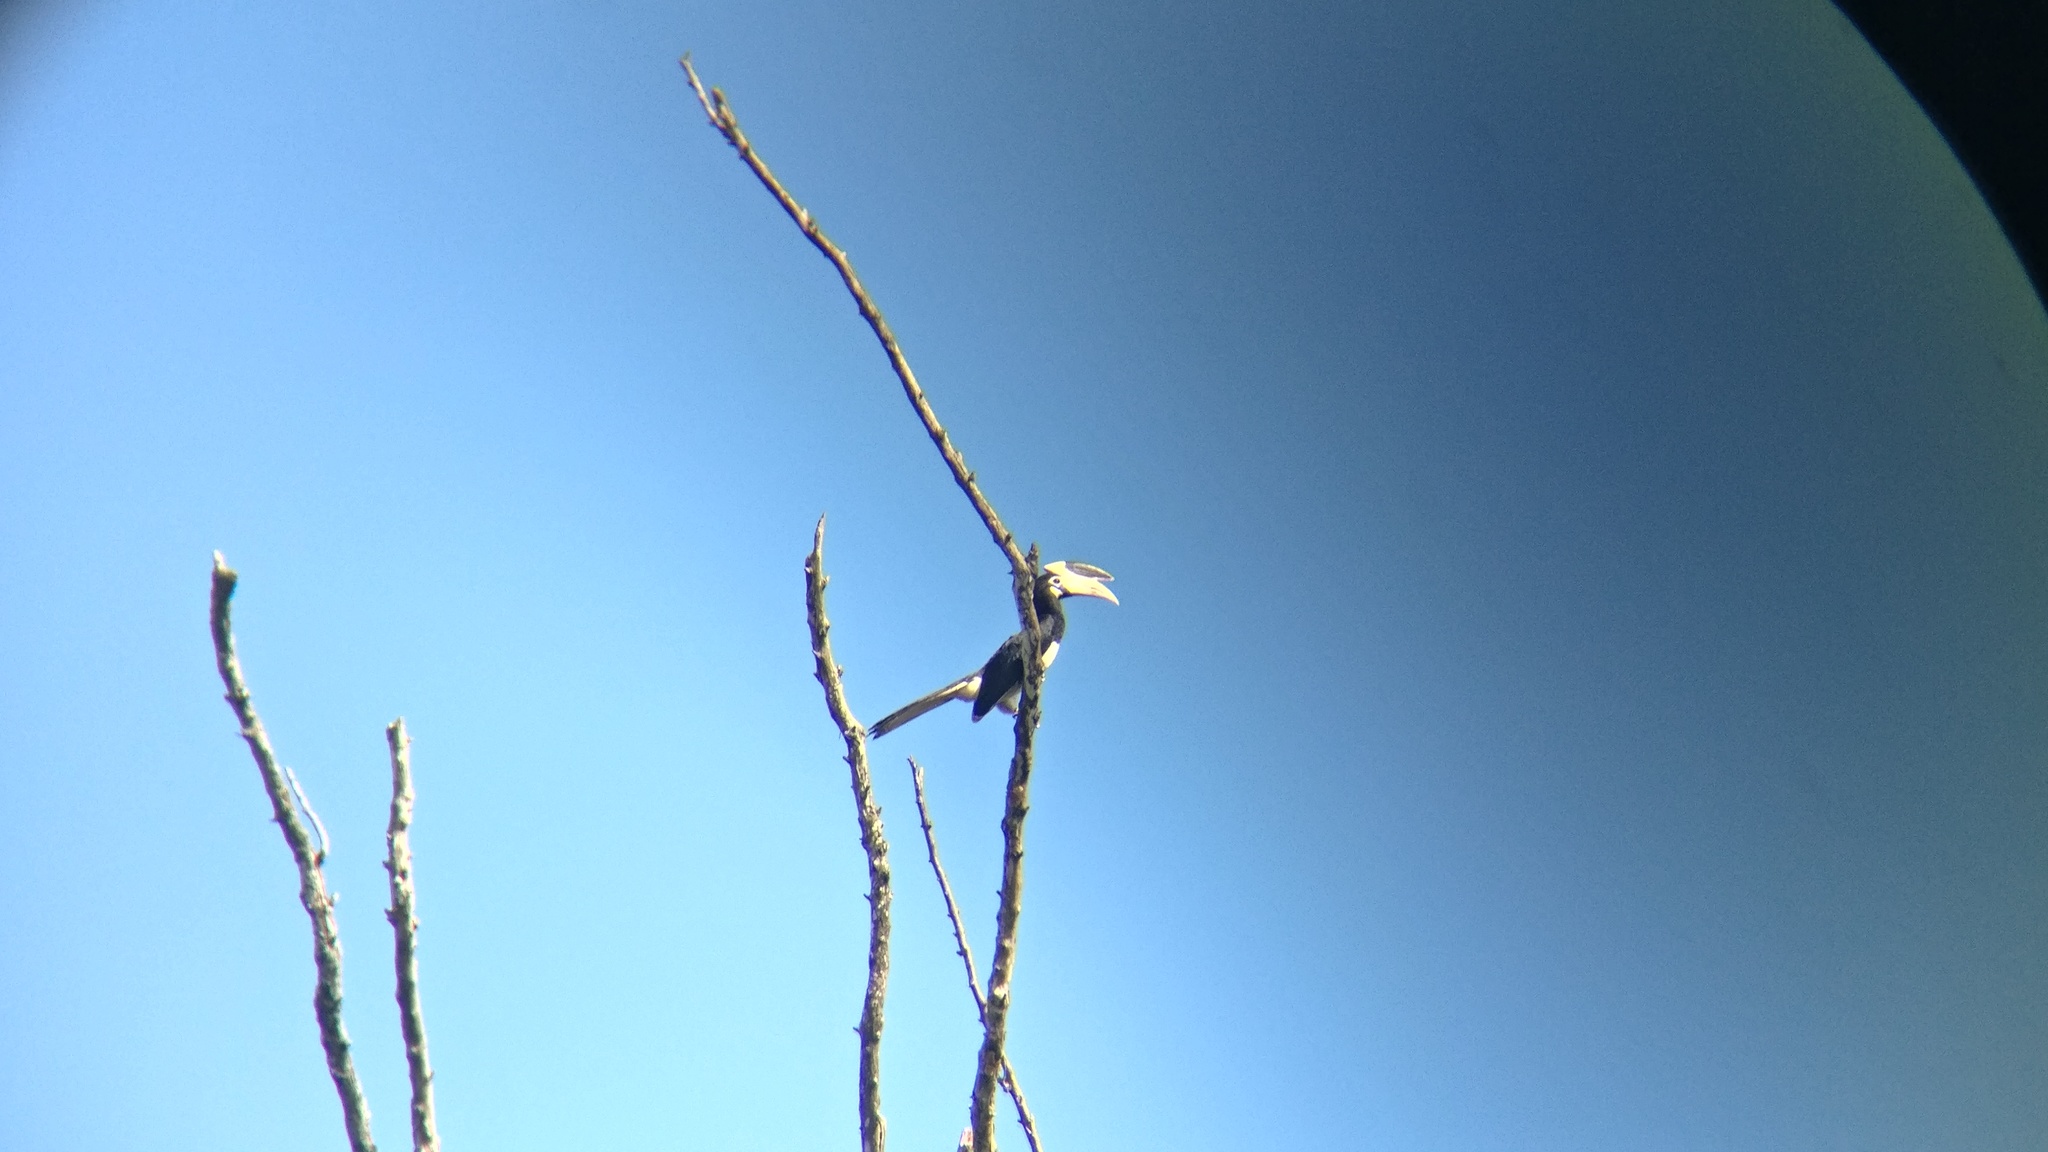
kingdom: Animalia
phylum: Chordata
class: Aves
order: Bucerotiformes
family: Bucerotidae
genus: Anthracoceros
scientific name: Anthracoceros coronatus
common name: Malabar pied hornbill
